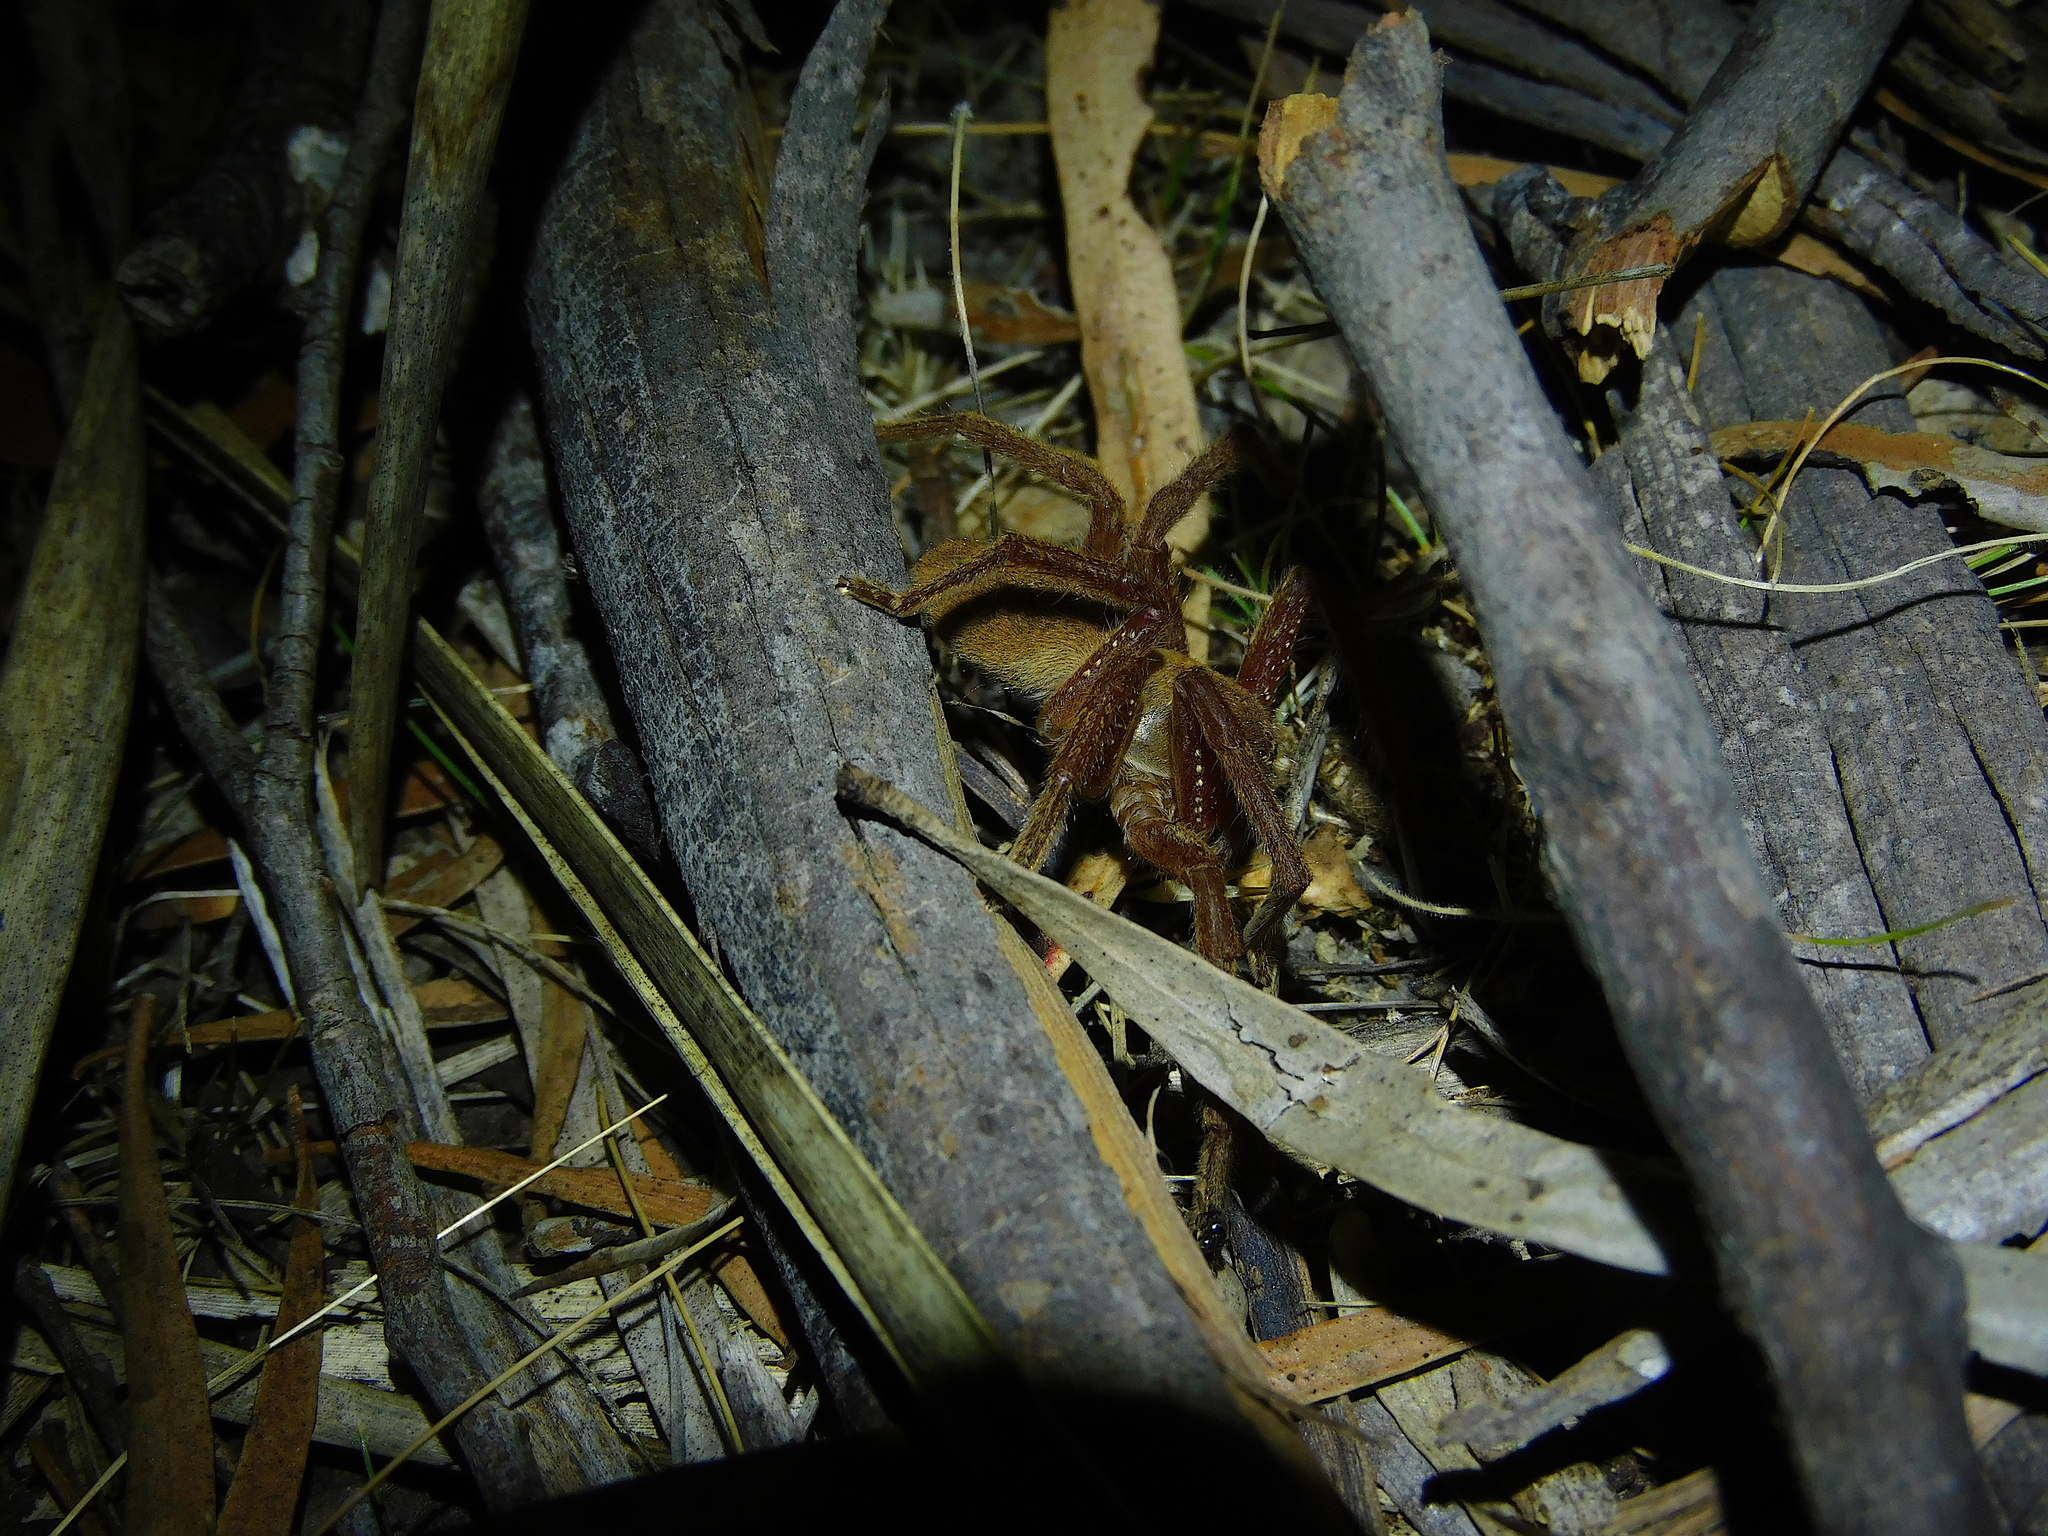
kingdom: Animalia
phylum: Arthropoda
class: Arachnida
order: Araneae
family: Sparassidae
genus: Neosparassus
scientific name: Neosparassus diana
